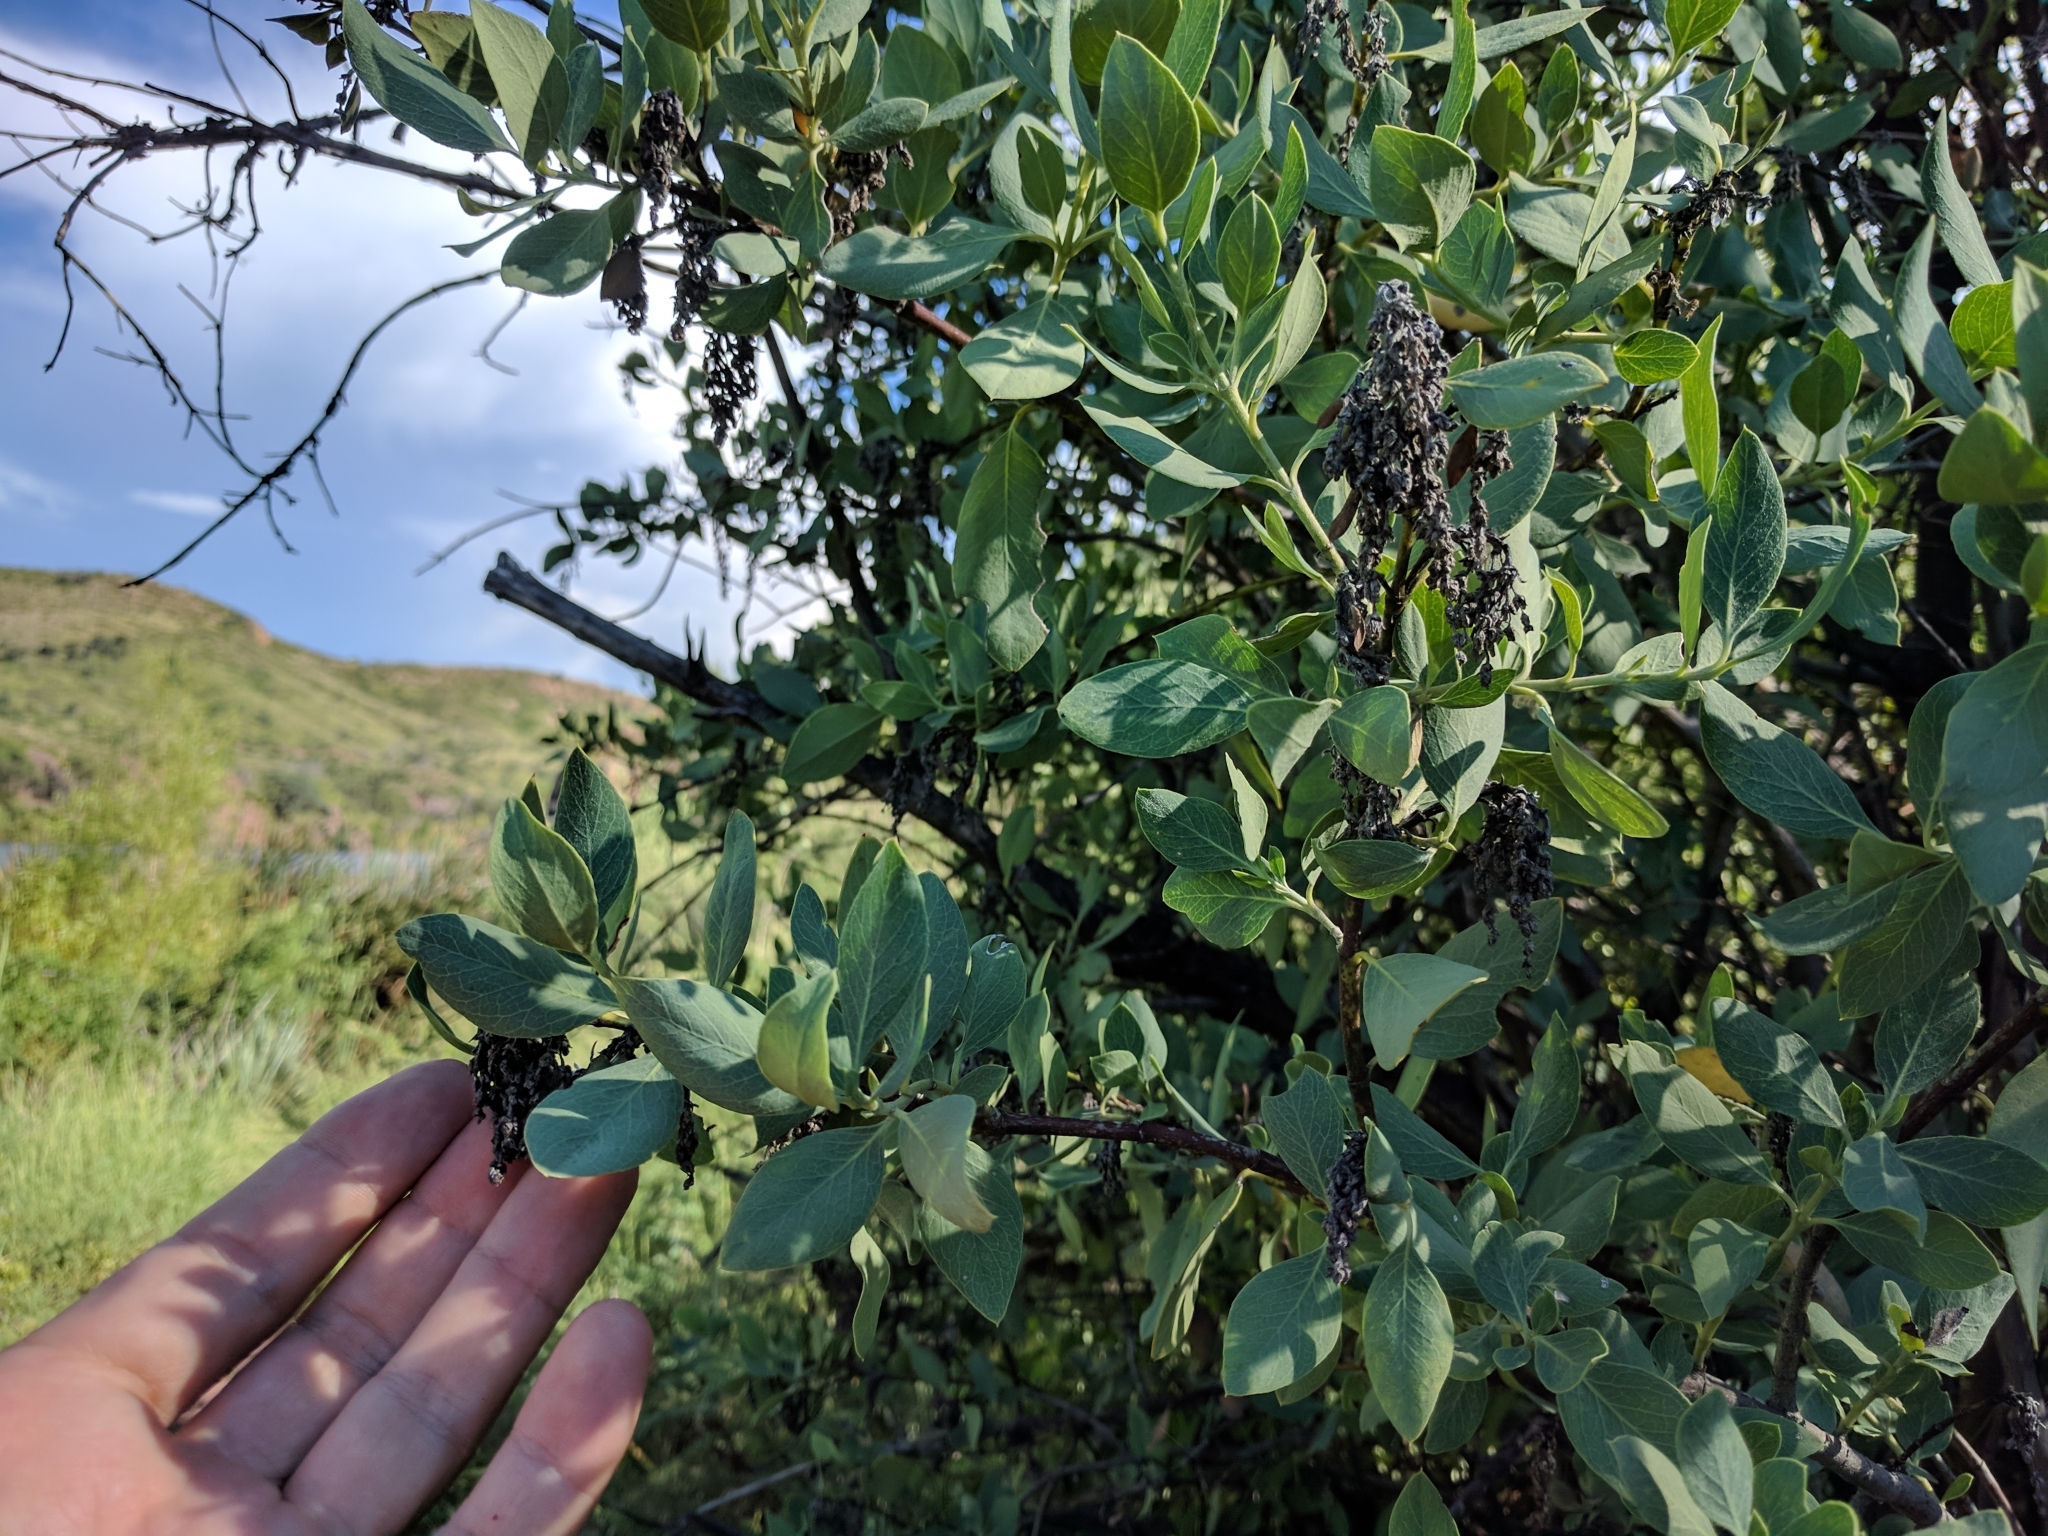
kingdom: Plantae
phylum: Tracheophyta
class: Magnoliopsida
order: Garryales
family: Garryaceae
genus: Garrya
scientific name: Garrya wrightii
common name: Wright's silktassel
